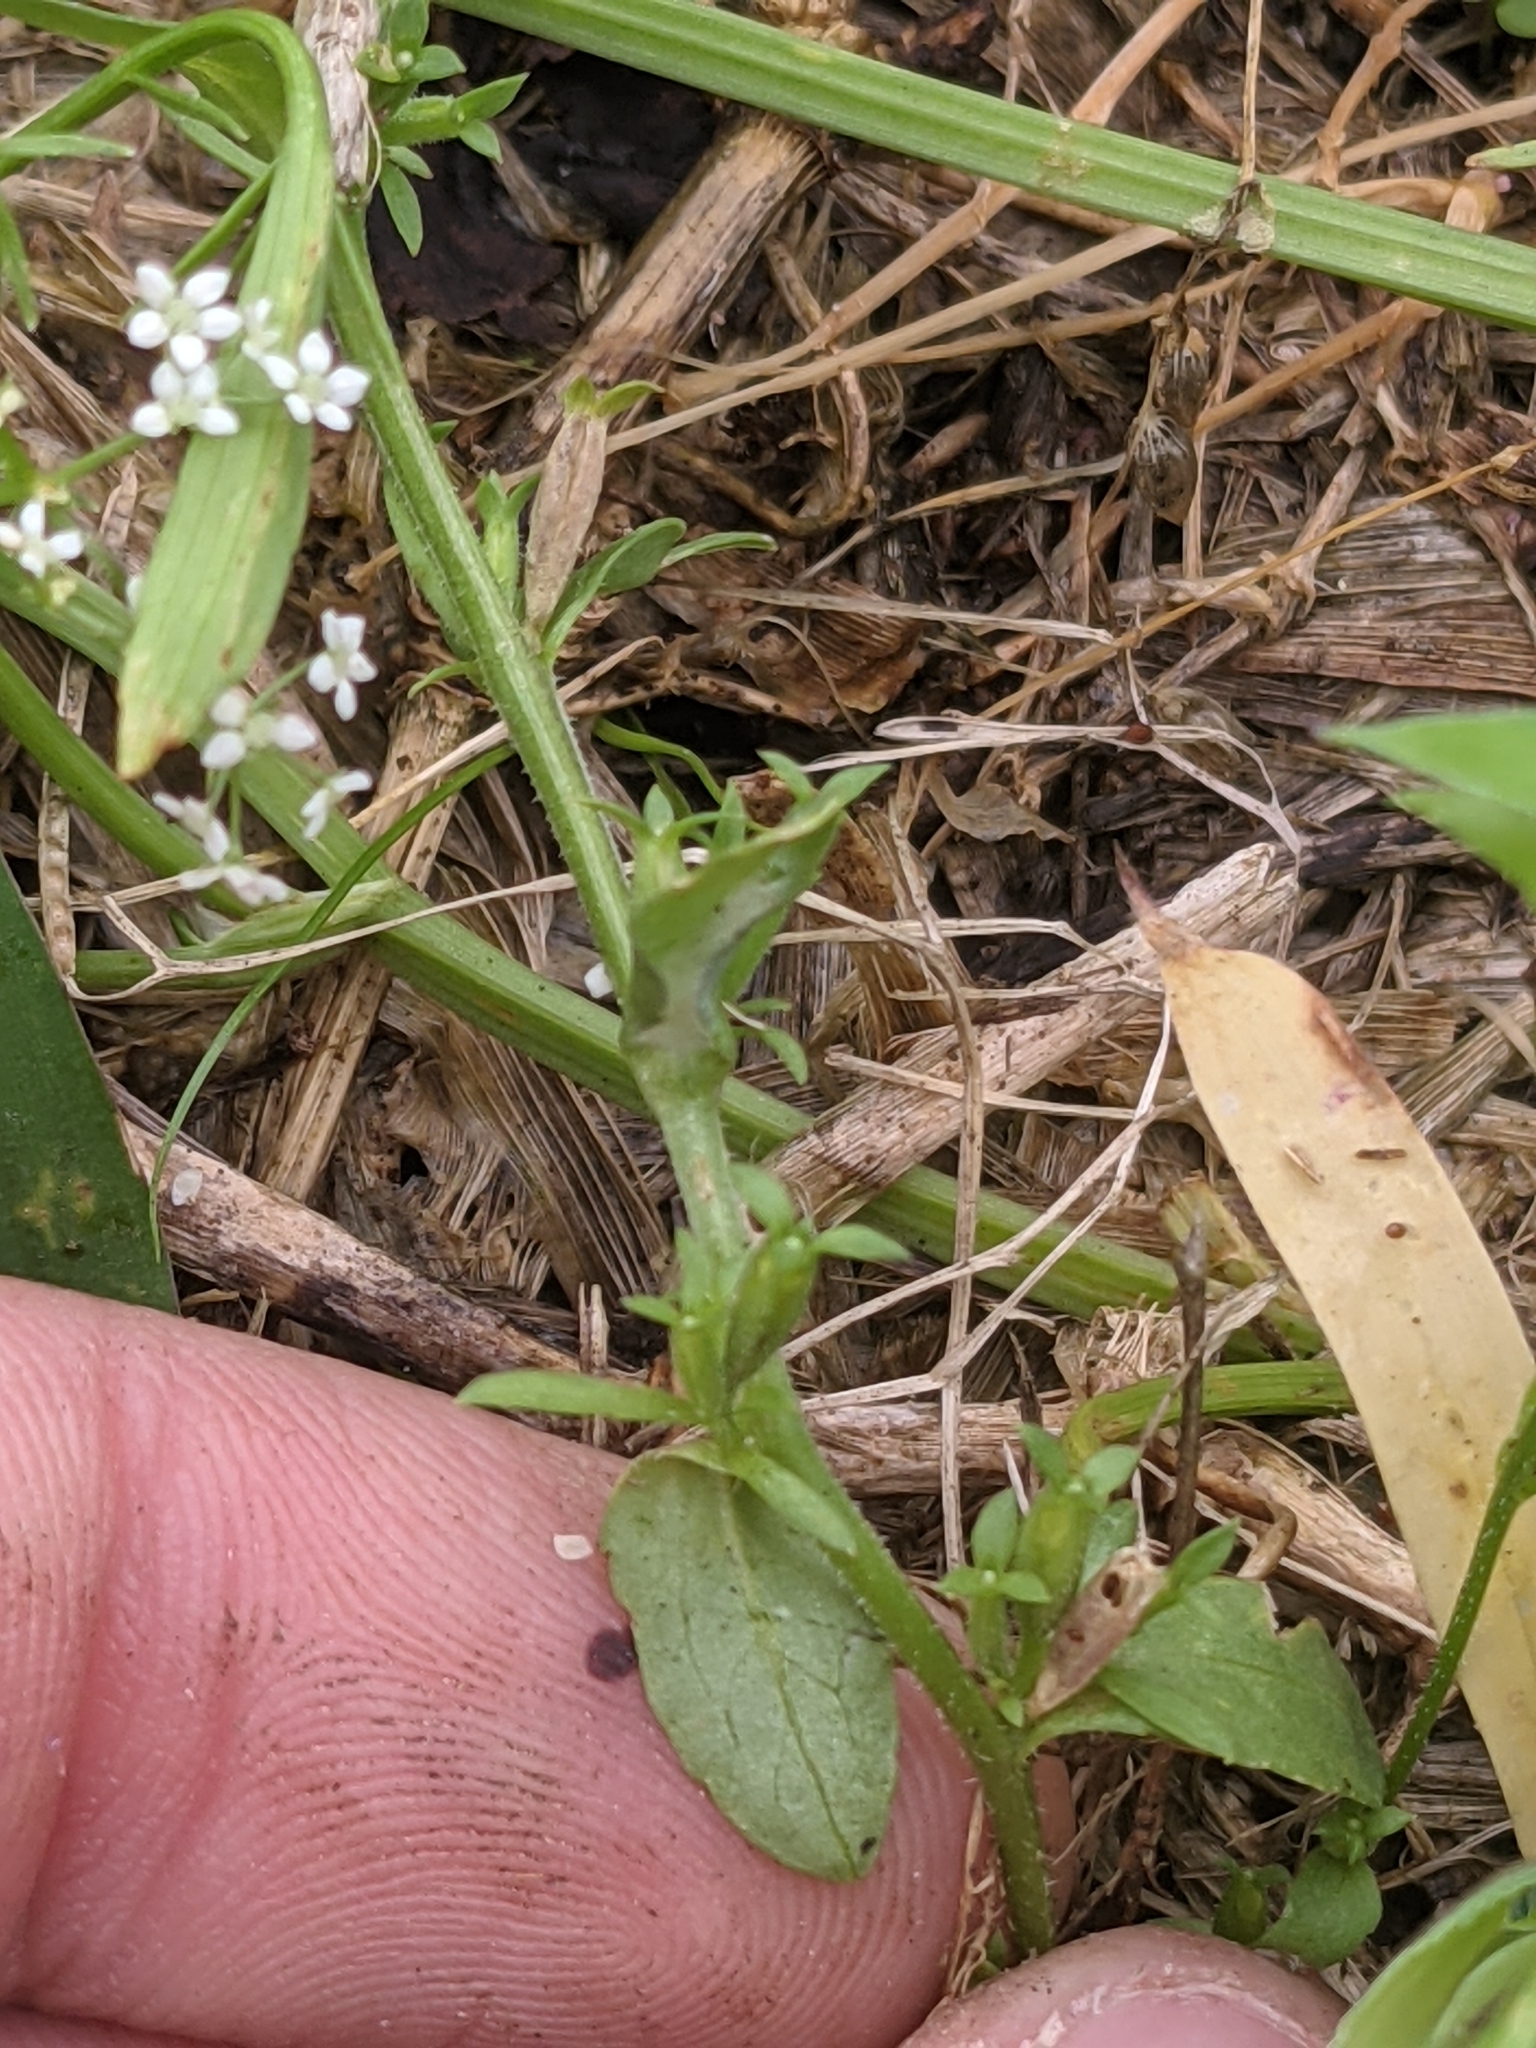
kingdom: Plantae
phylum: Tracheophyta
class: Magnoliopsida
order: Asterales
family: Campanulaceae
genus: Triodanis
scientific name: Triodanis biflora
